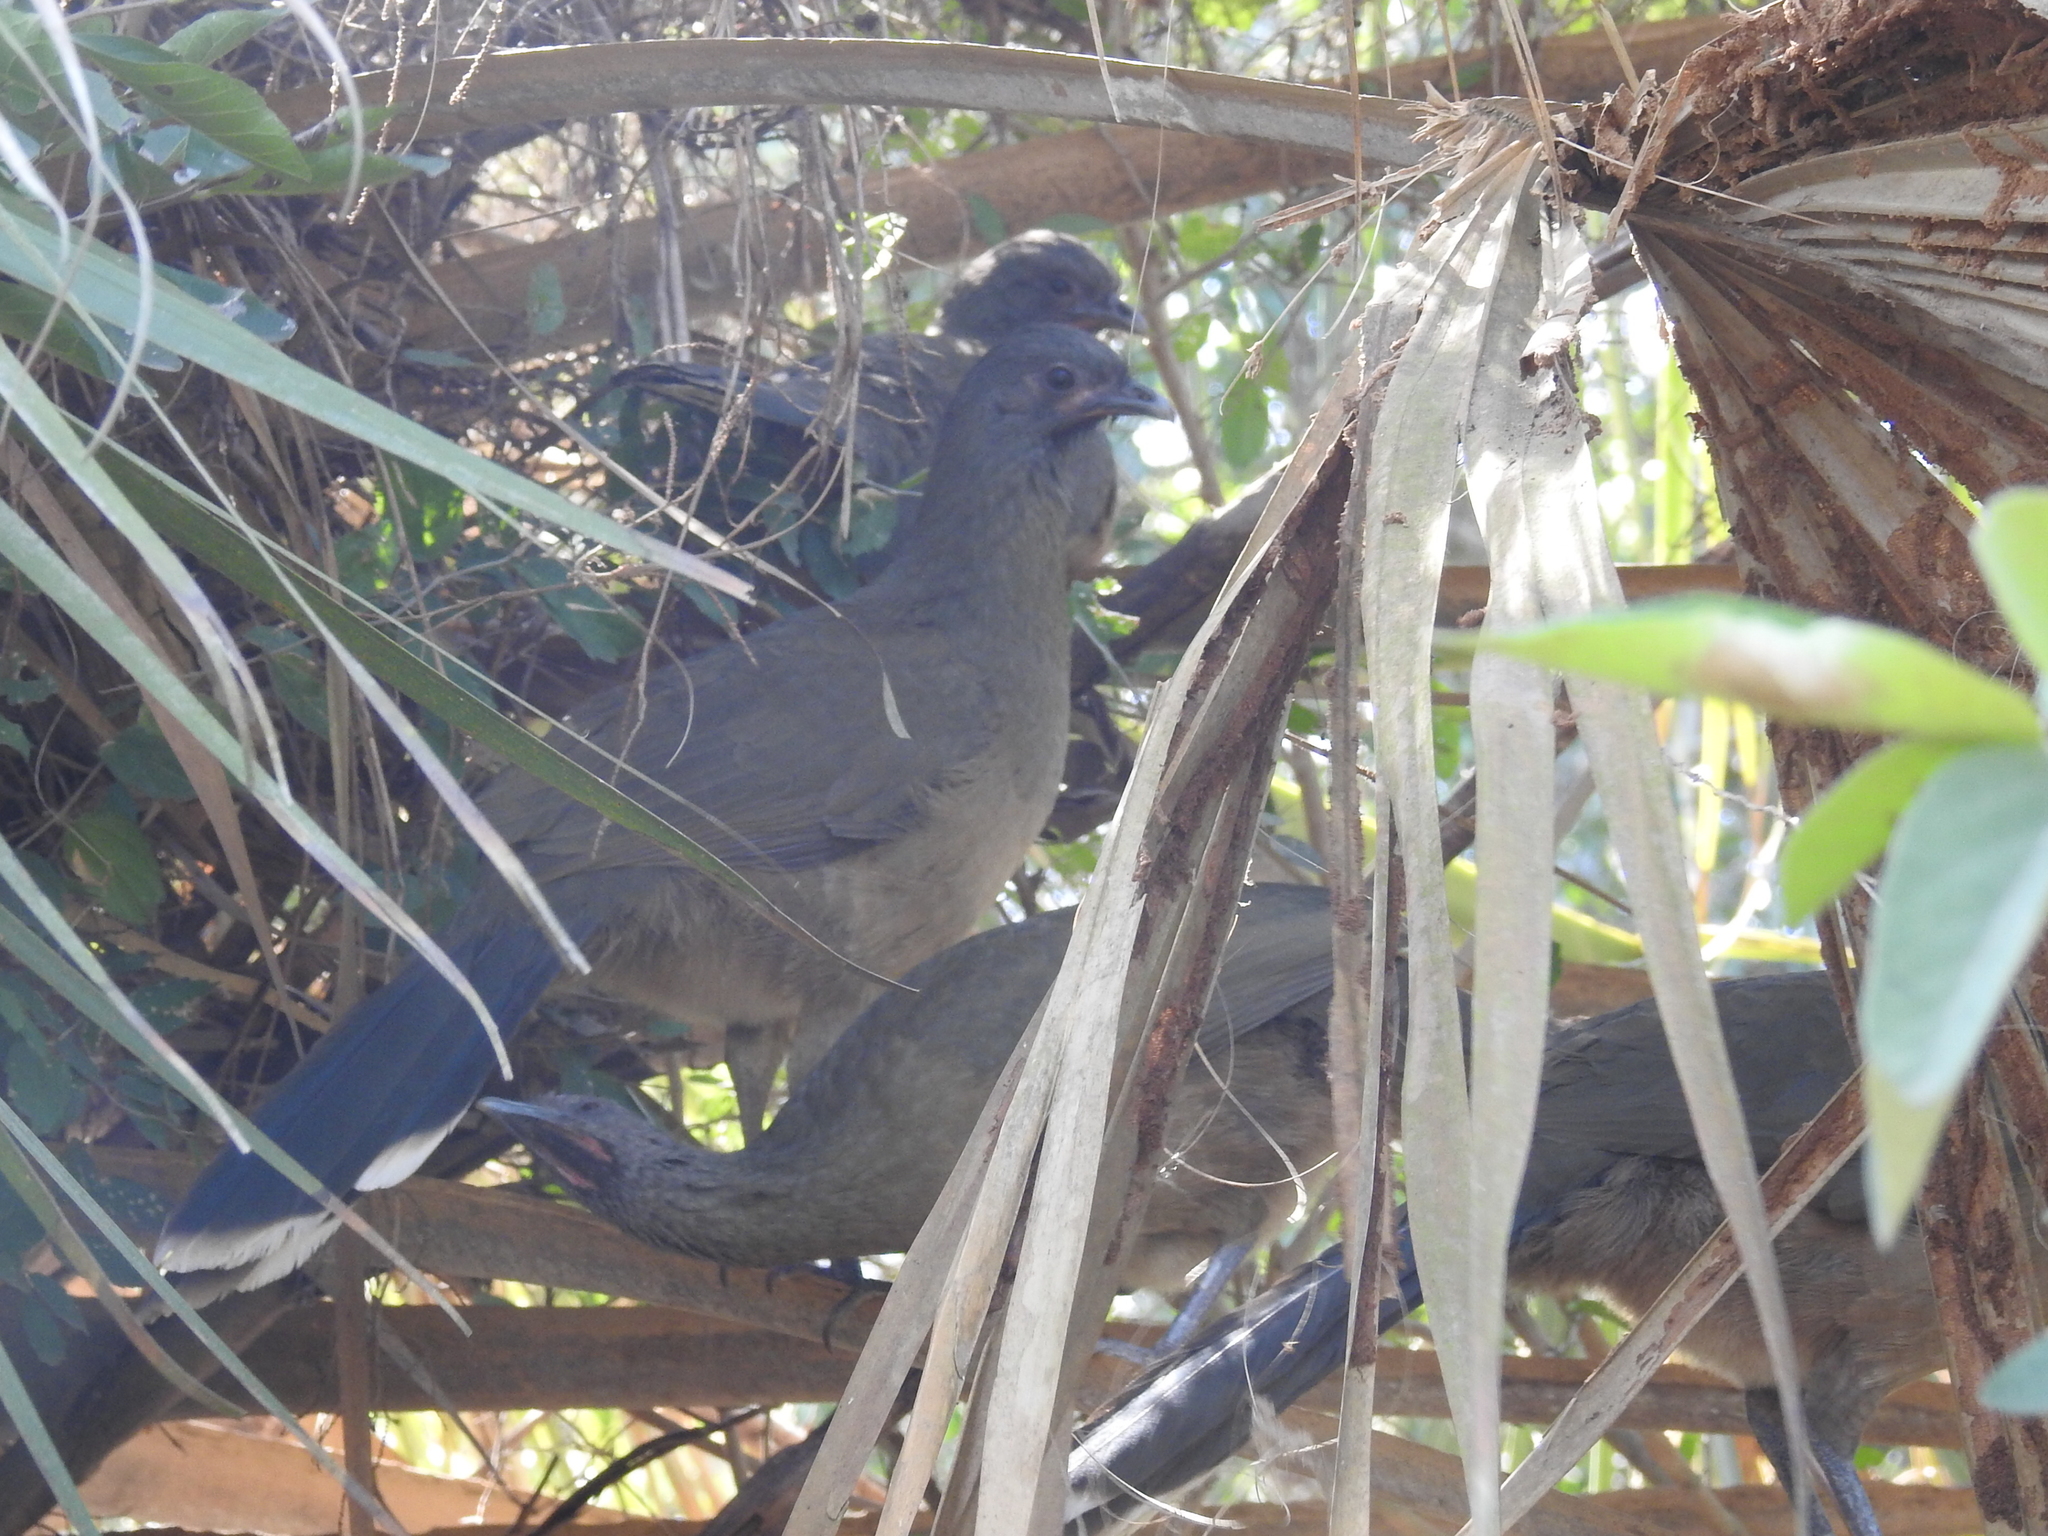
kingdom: Animalia
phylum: Chordata
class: Aves
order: Galliformes
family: Cracidae
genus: Ortalis
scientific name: Ortalis vetula
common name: Plain chachalaca
